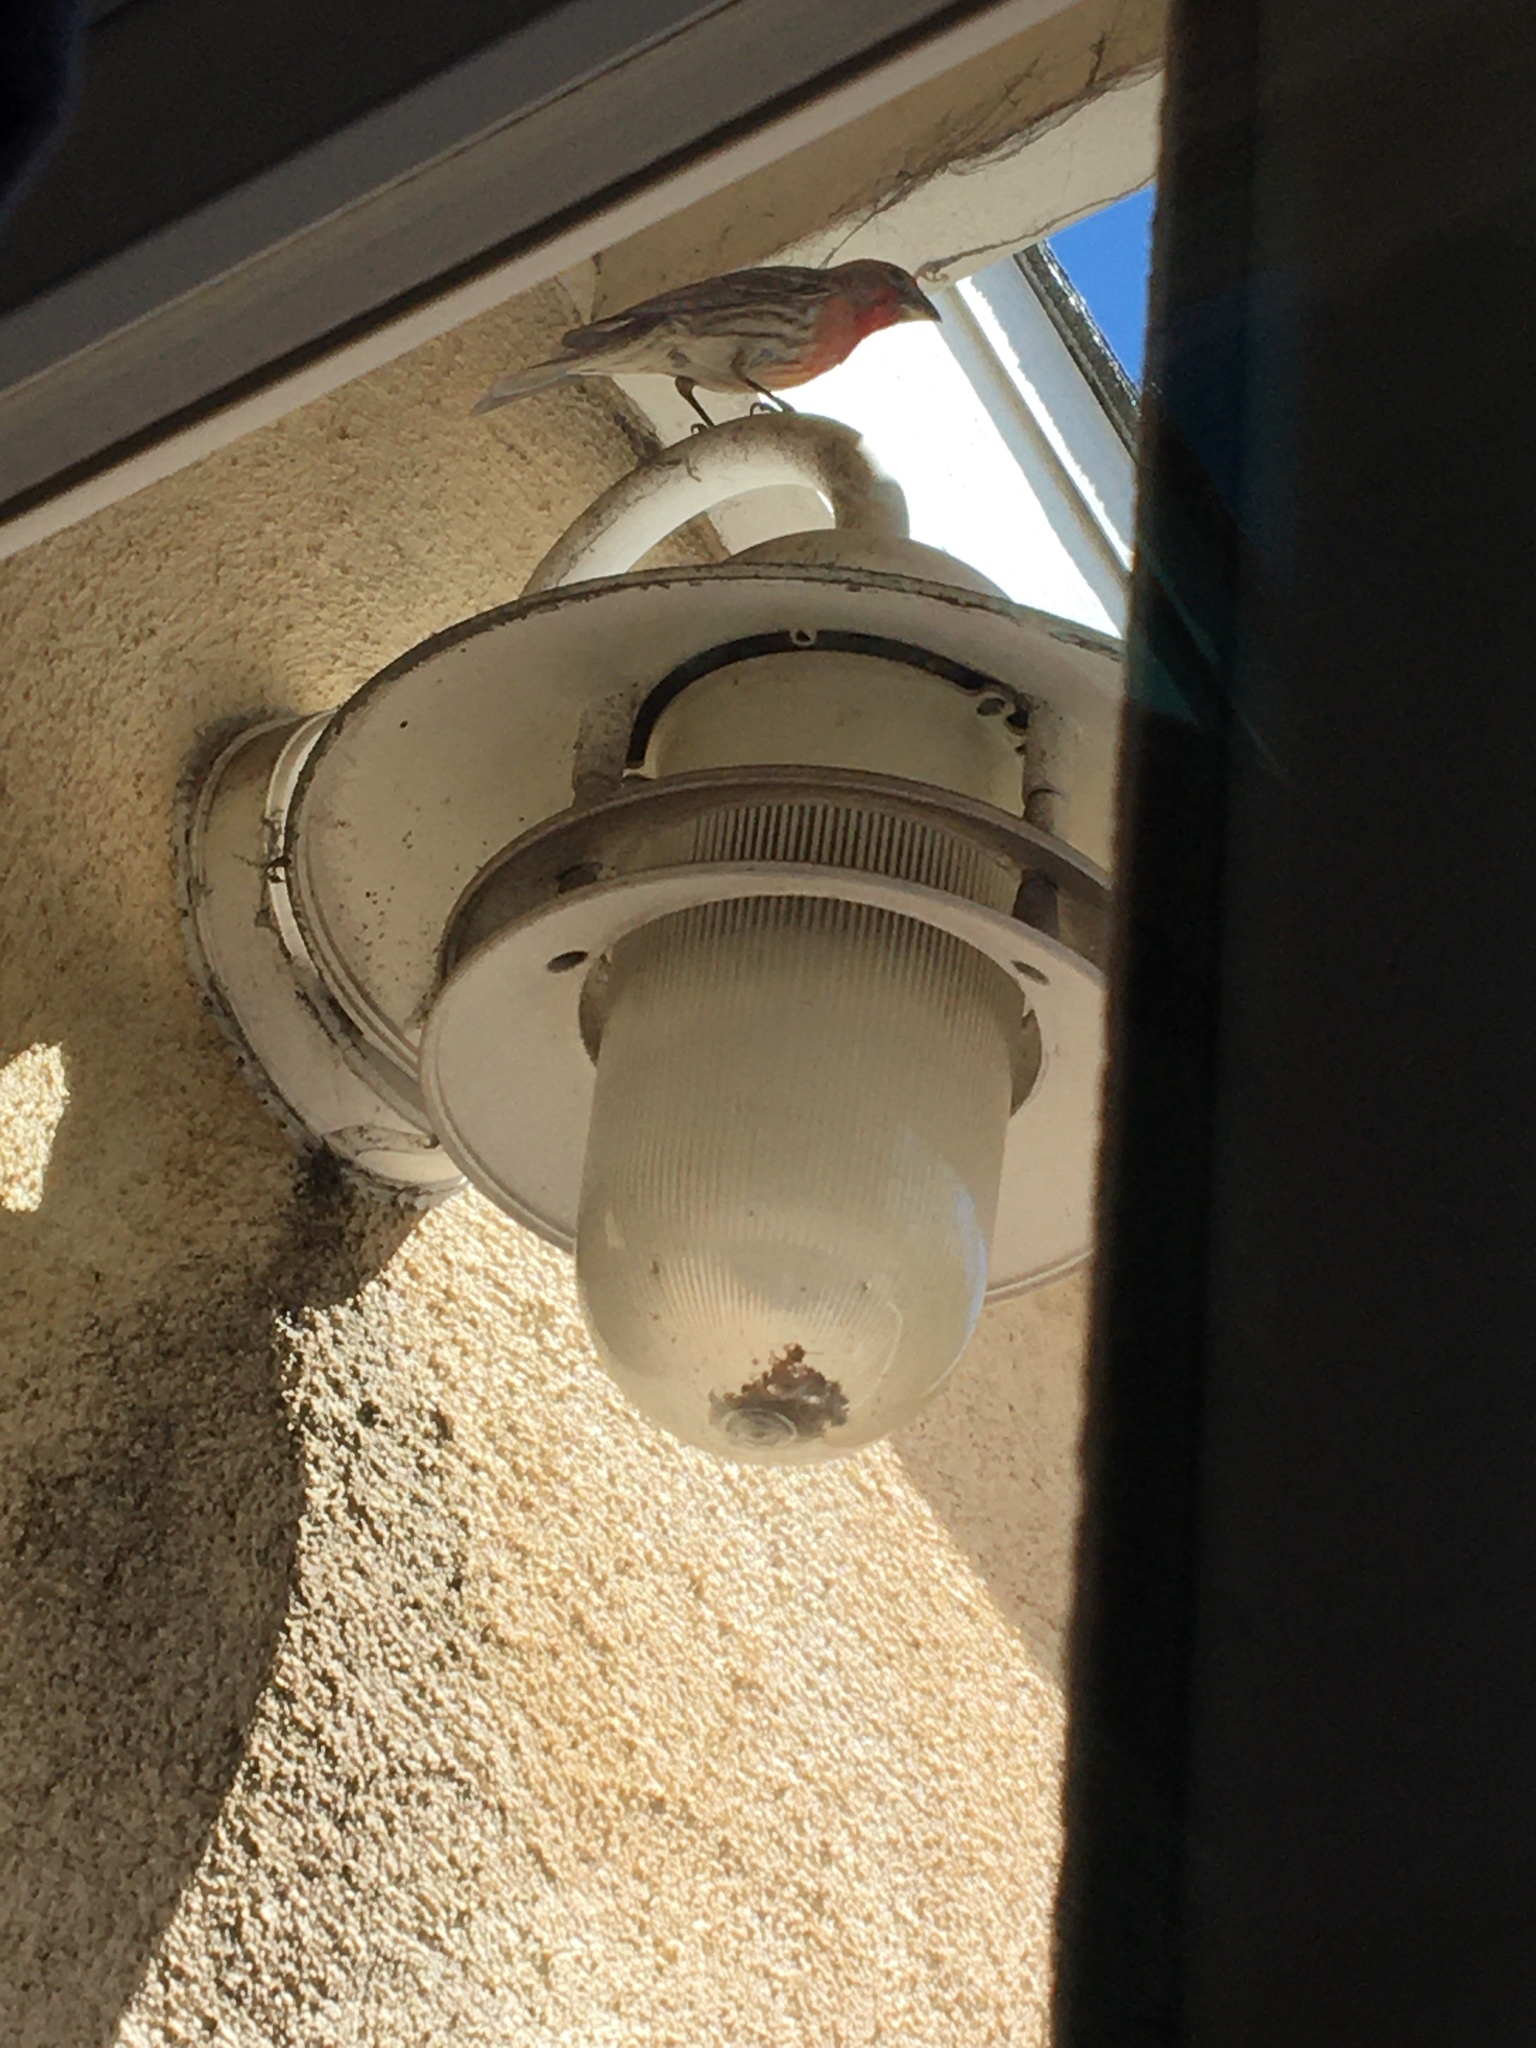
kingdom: Animalia
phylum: Chordata
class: Aves
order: Passeriformes
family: Fringillidae
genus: Haemorhous
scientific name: Haemorhous mexicanus
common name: House finch
